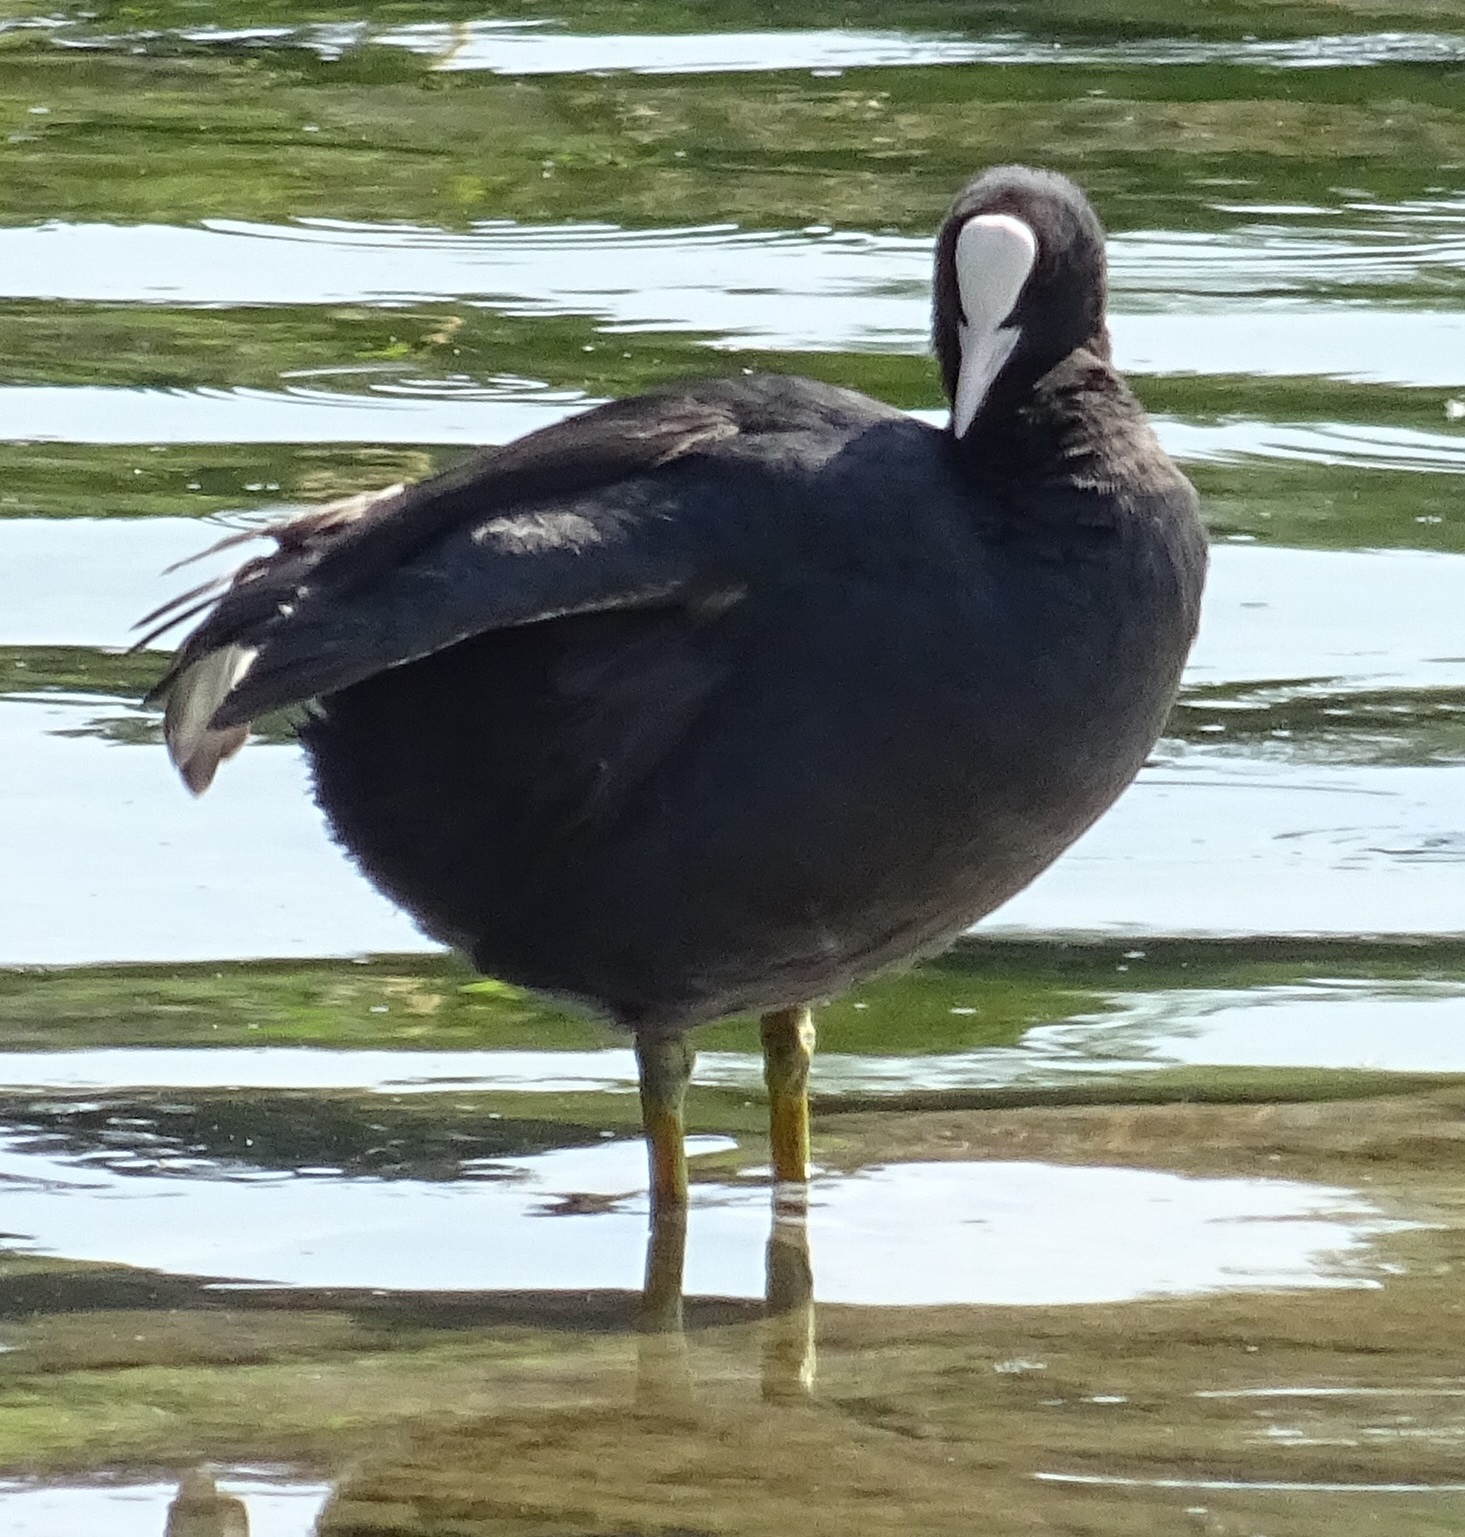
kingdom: Animalia
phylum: Chordata
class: Aves
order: Gruiformes
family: Rallidae
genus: Fulica
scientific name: Fulica atra
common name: Eurasian coot
